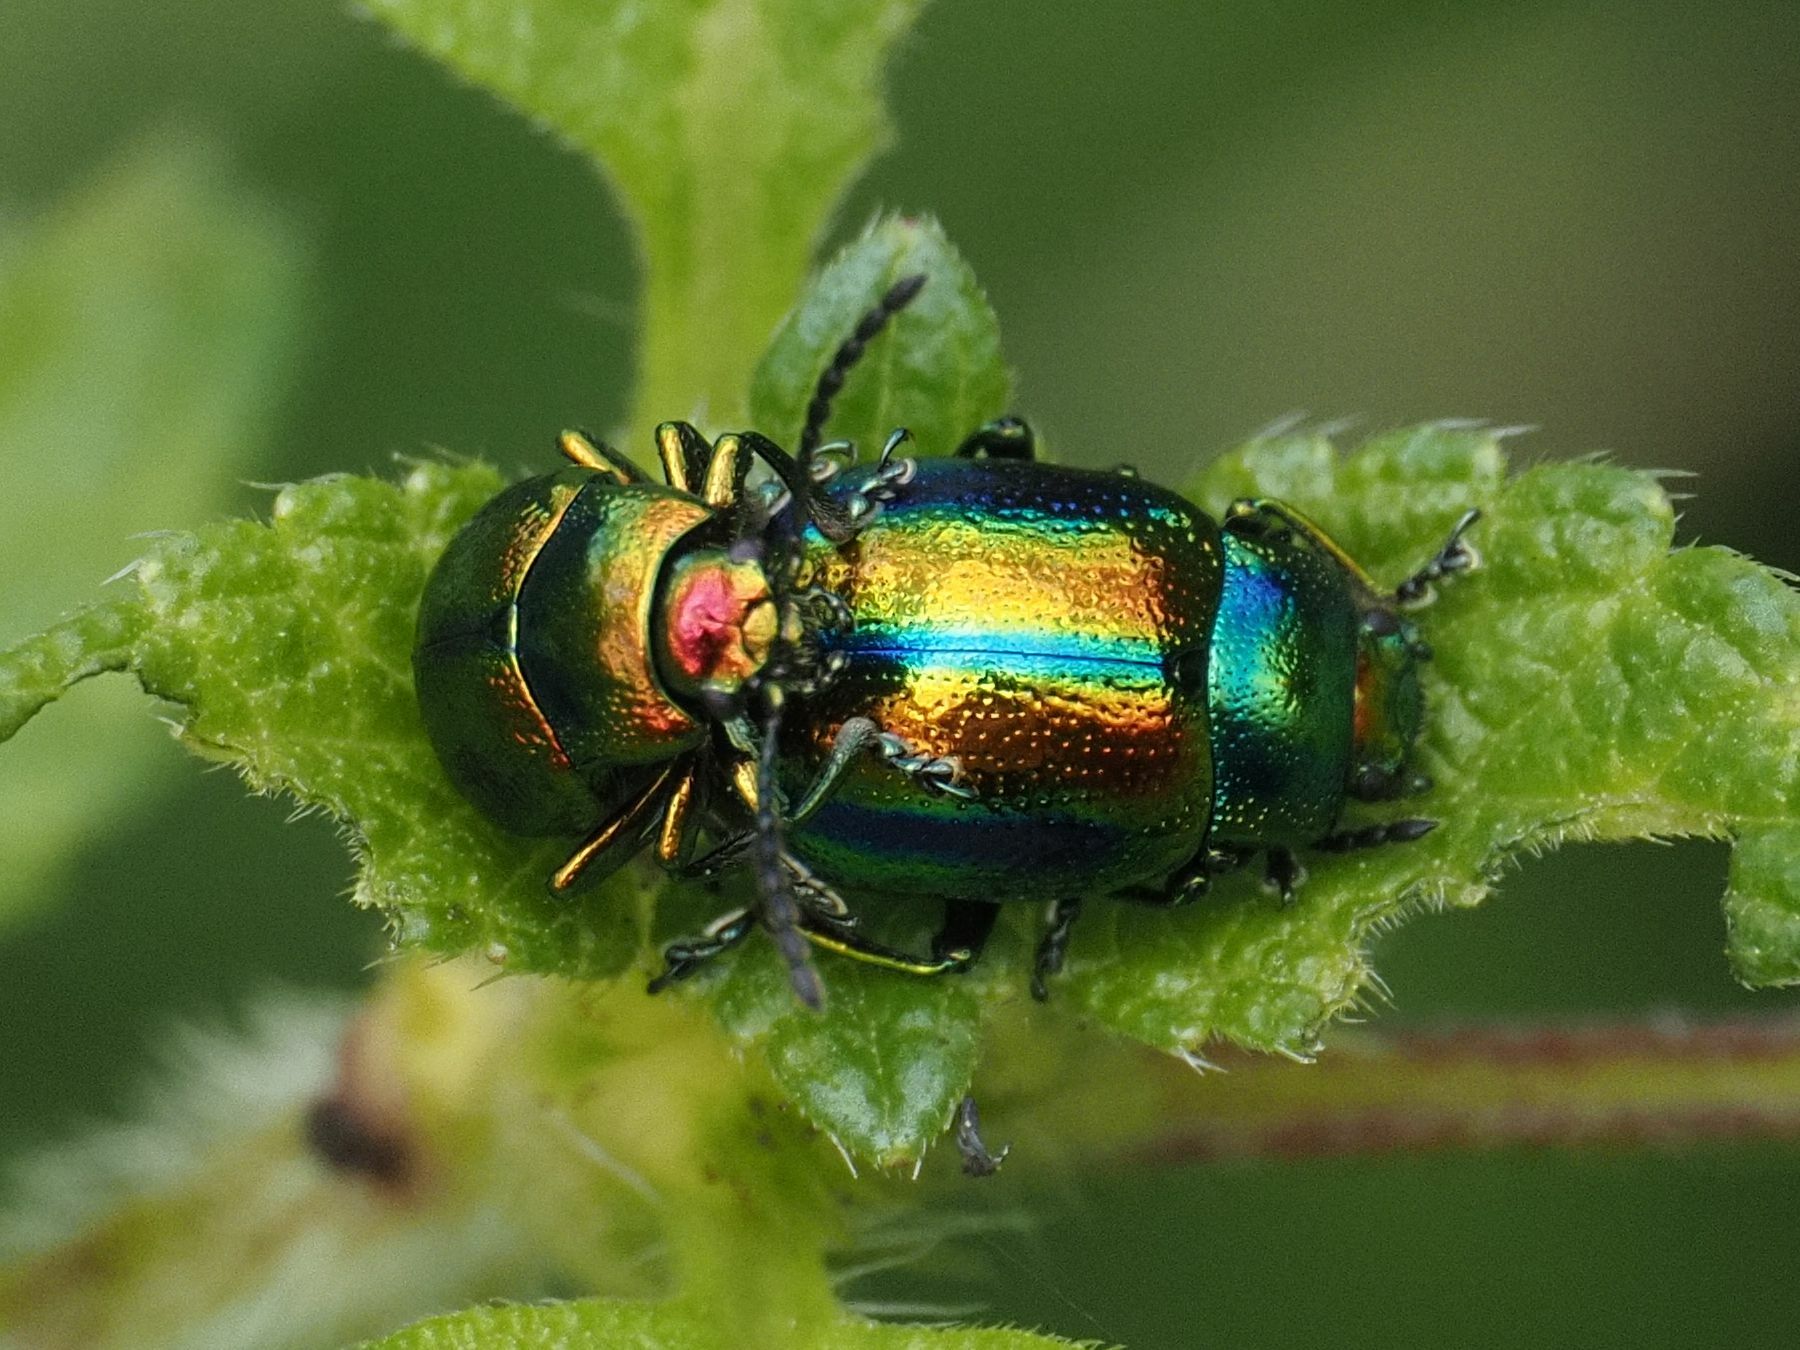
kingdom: Animalia
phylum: Arthropoda
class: Insecta
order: Coleoptera
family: Chrysomelidae
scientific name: Chrysomelidae
